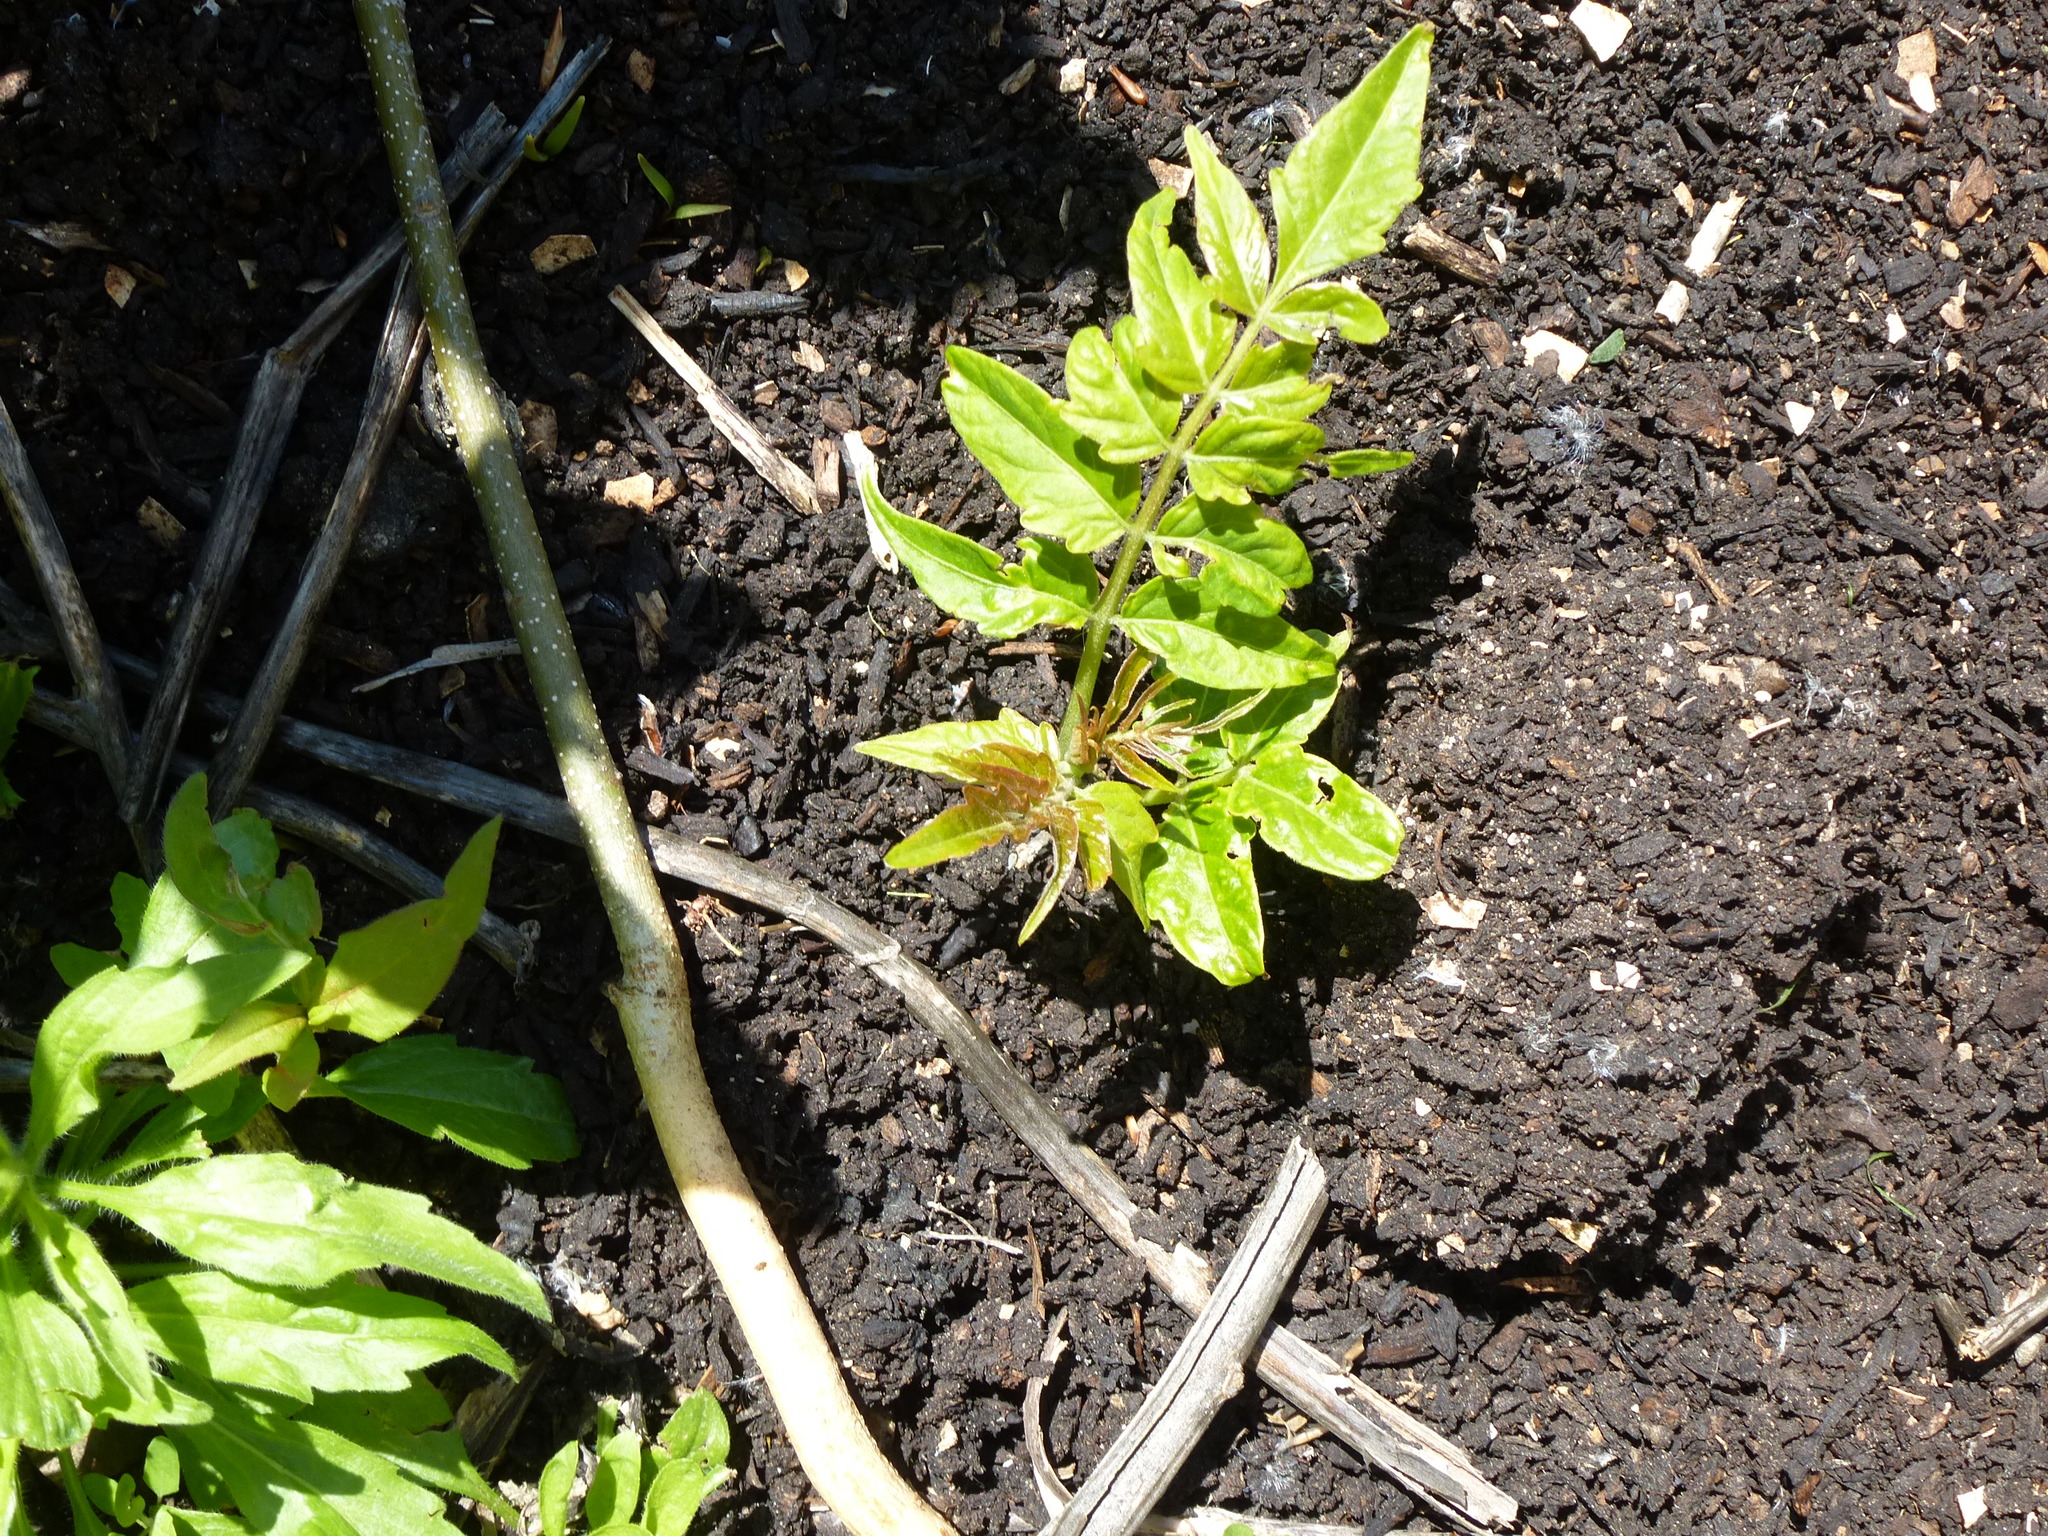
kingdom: Plantae
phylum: Tracheophyta
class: Magnoliopsida
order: Sapindales
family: Simaroubaceae
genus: Ailanthus
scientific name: Ailanthus altissima
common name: Tree-of-heaven
